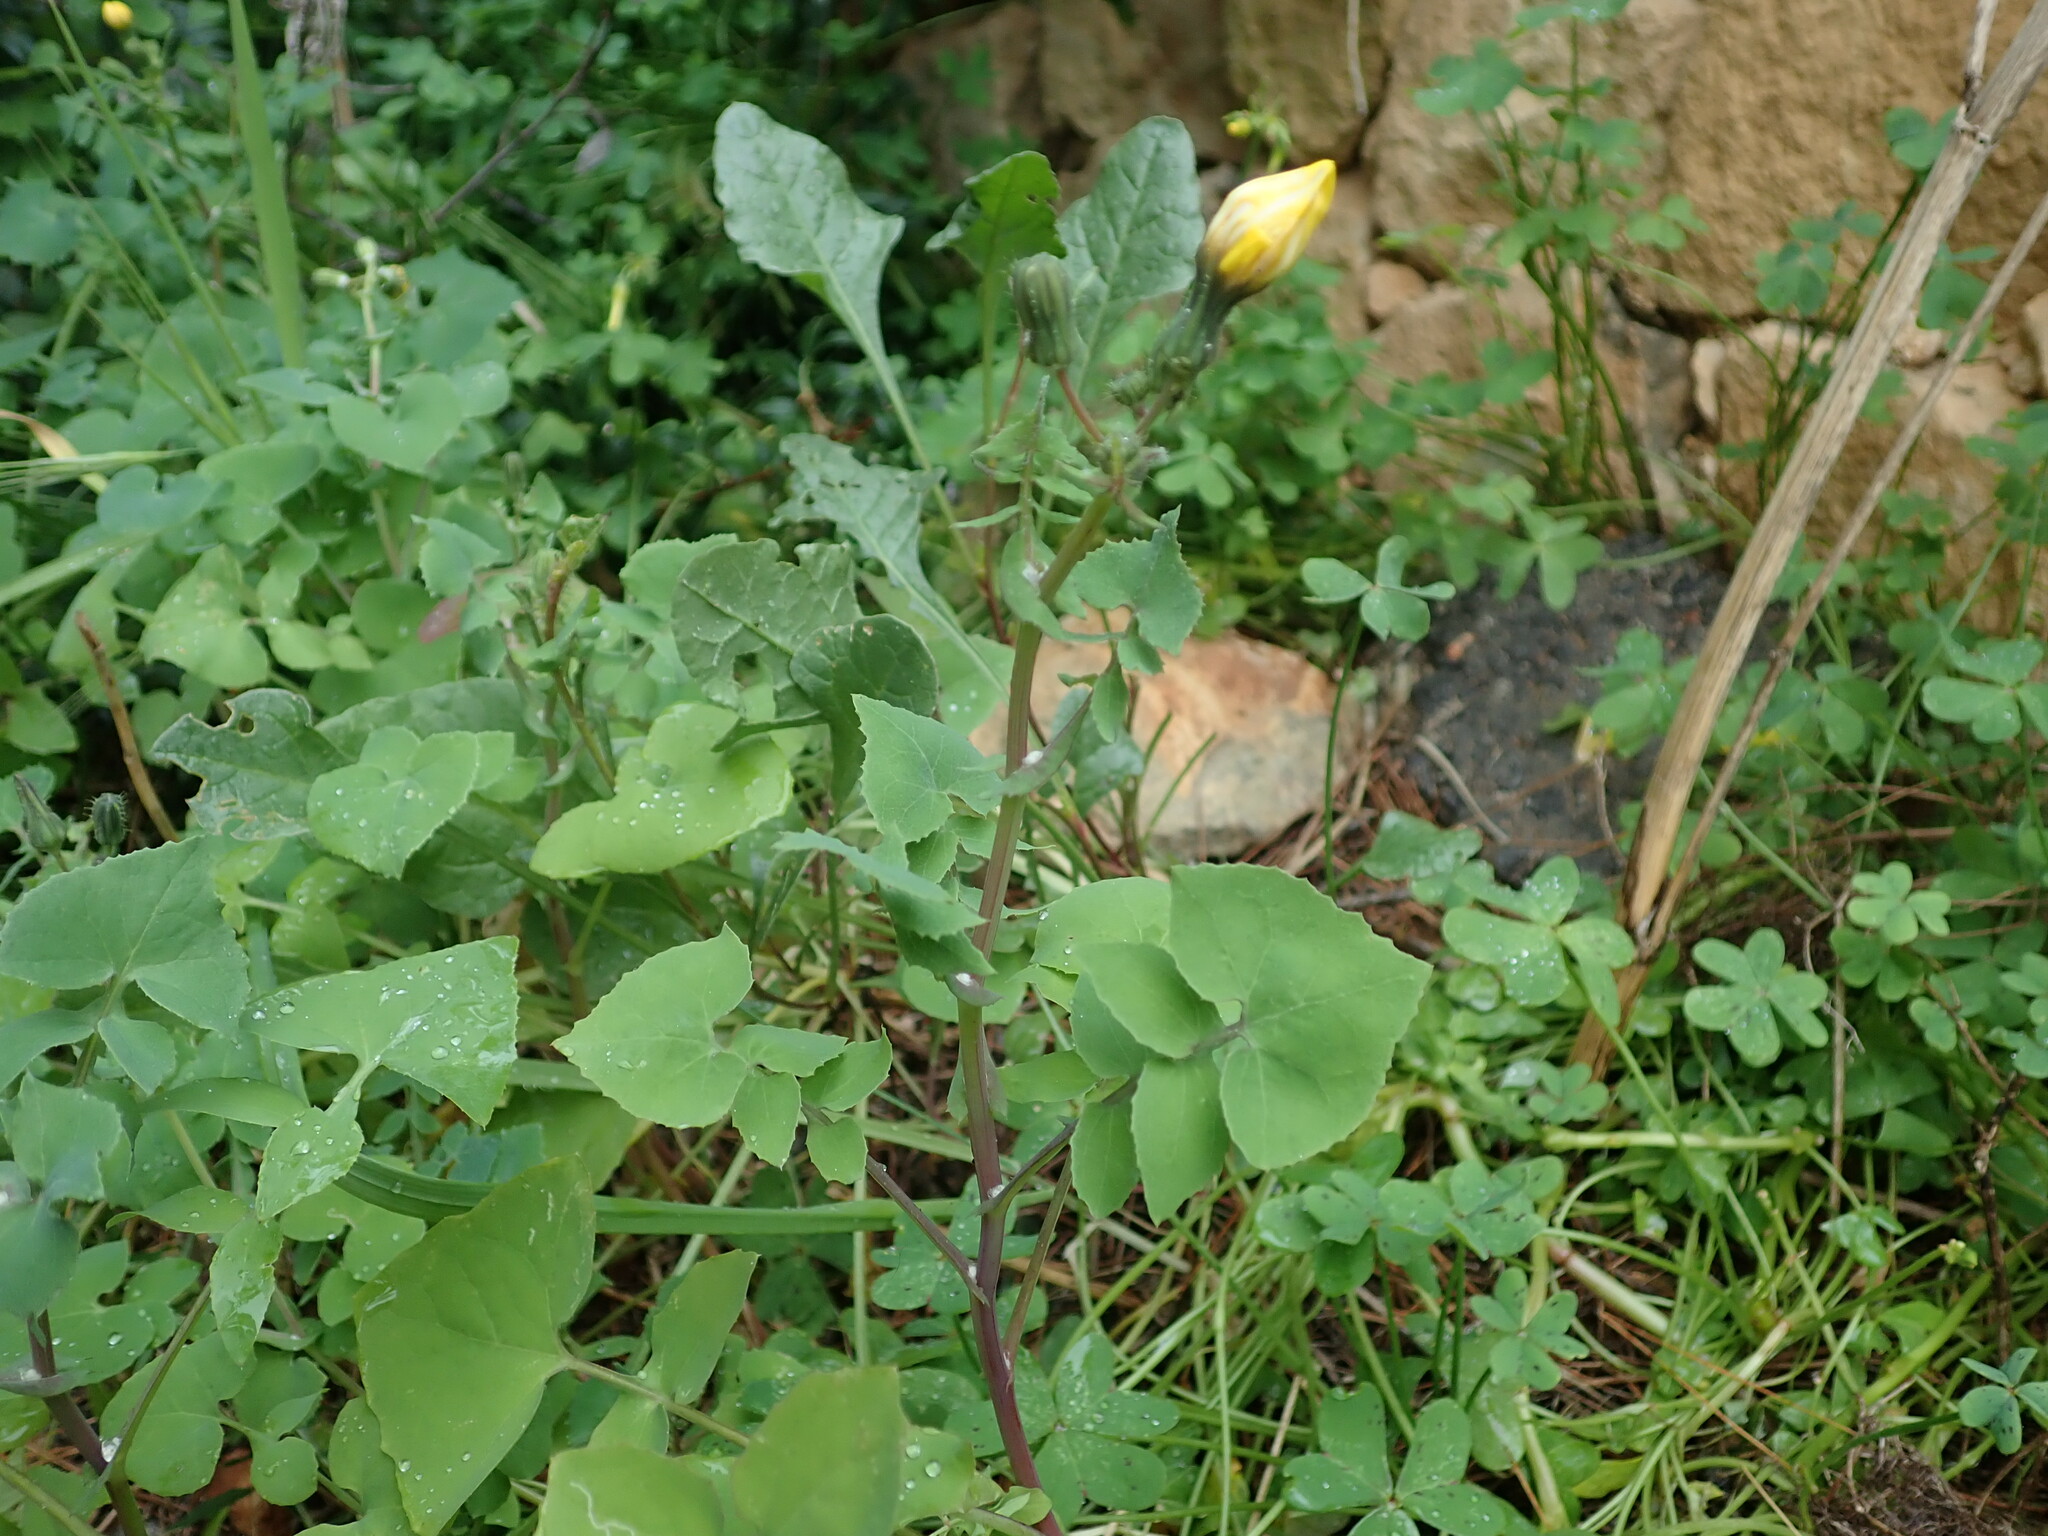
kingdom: Plantae
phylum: Tracheophyta
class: Magnoliopsida
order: Asterales
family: Asteraceae
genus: Sonchus
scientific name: Sonchus oleraceus
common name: Common sowthistle
